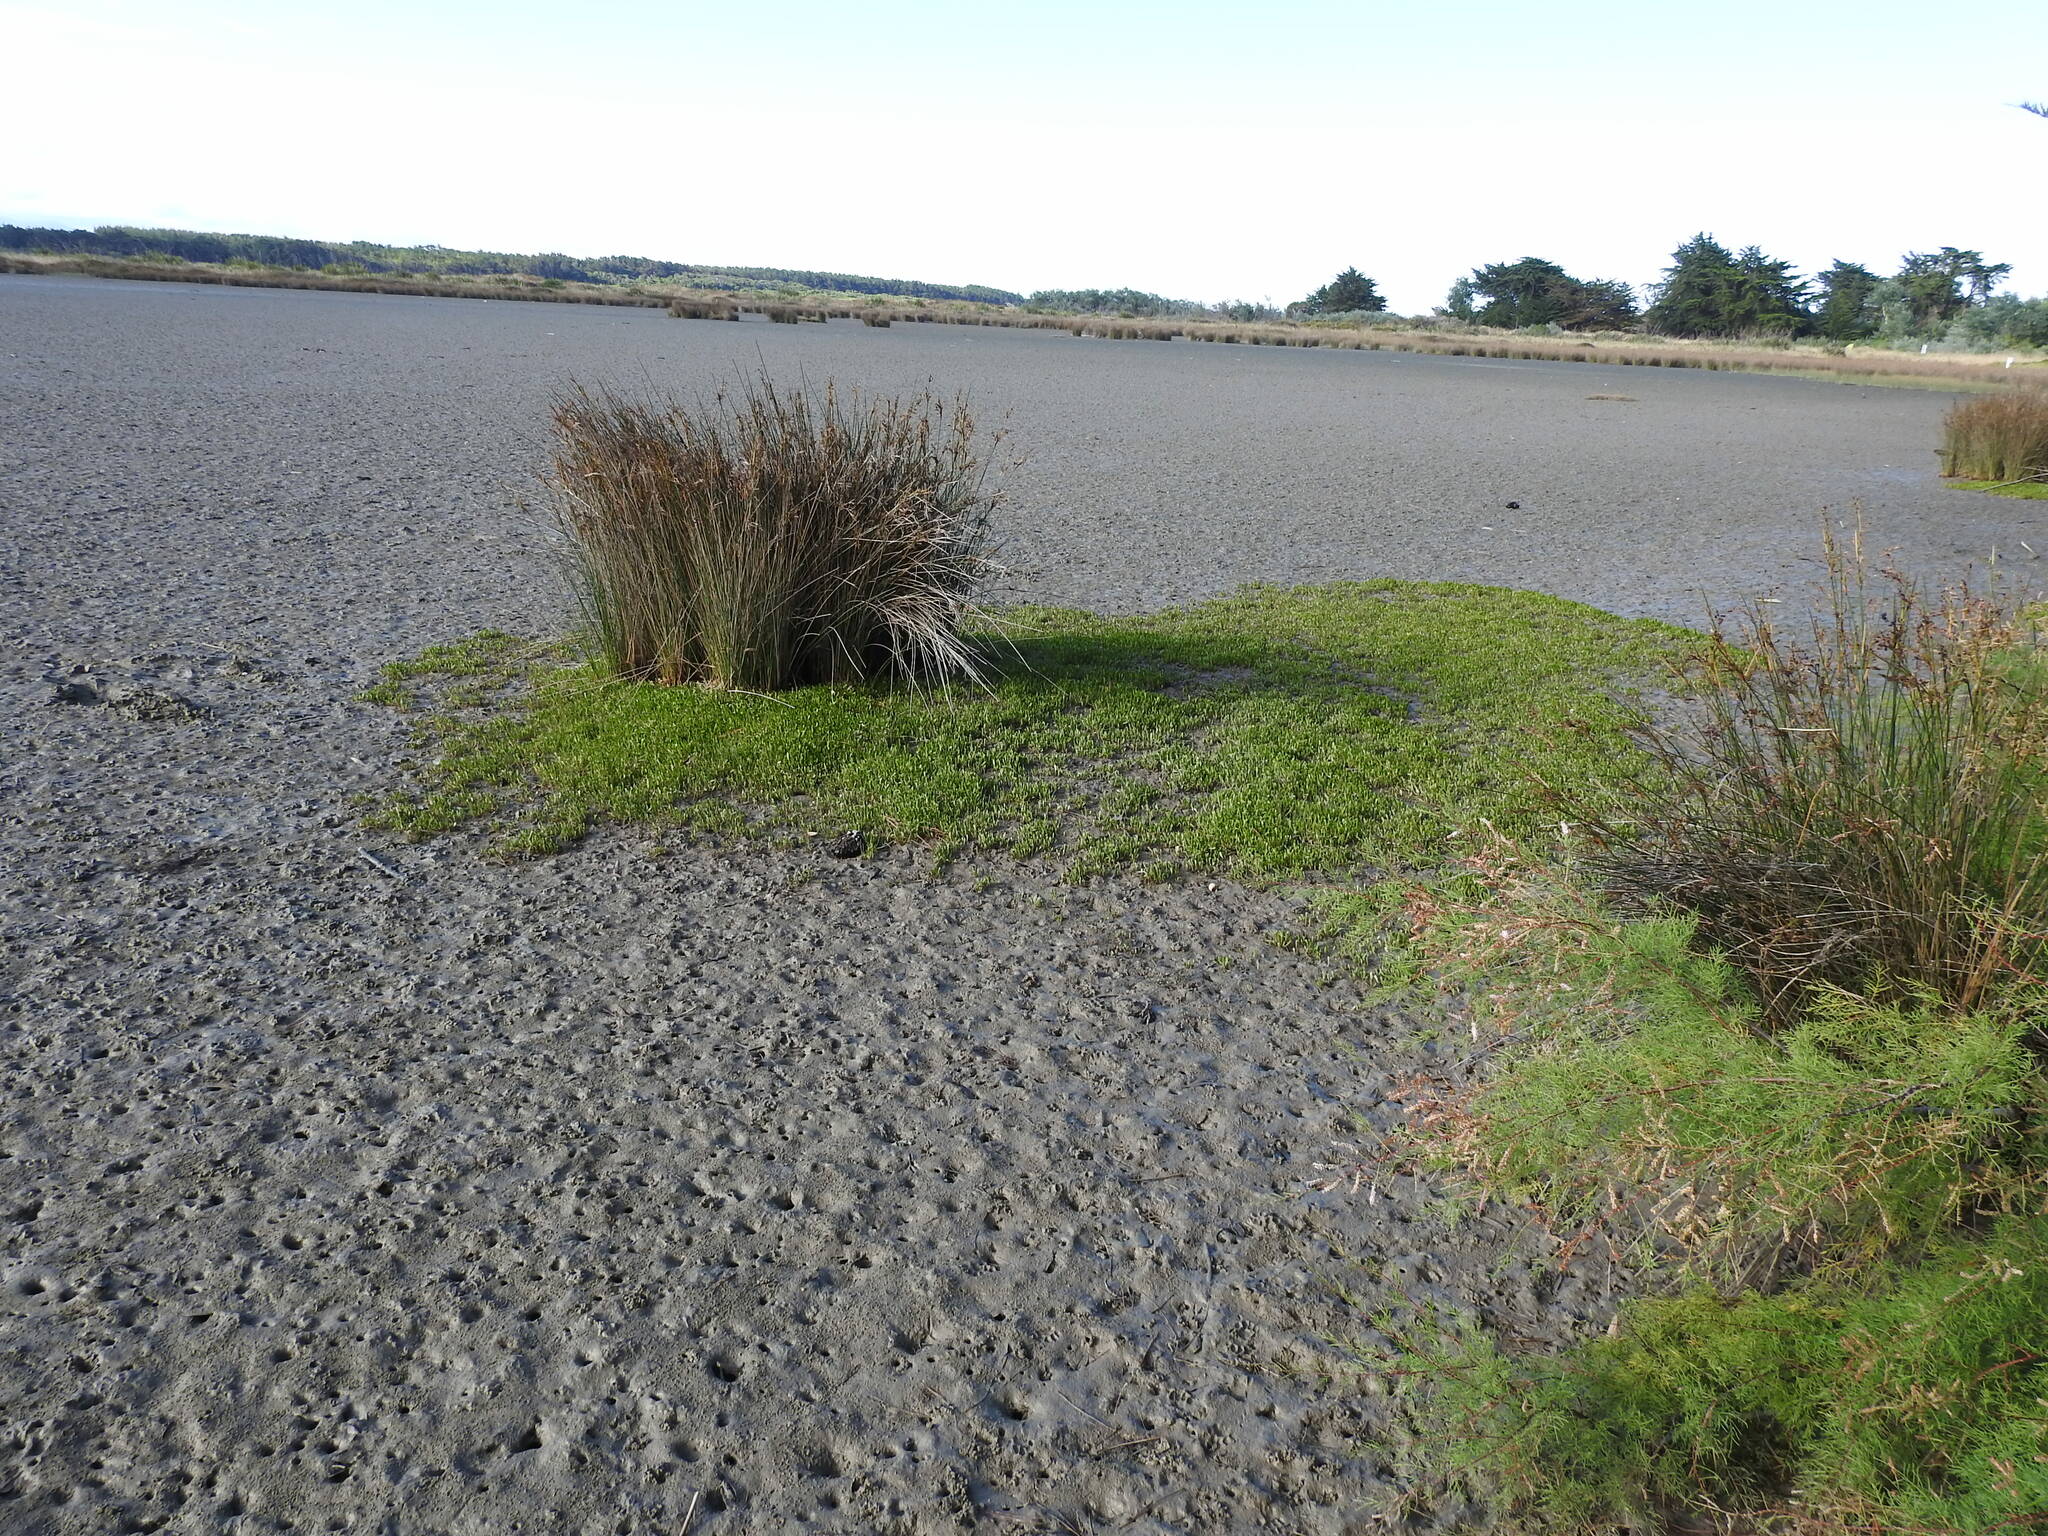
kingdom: Plantae
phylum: Tracheophyta
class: Liliopsida
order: Poales
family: Juncaceae
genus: Juncus
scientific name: Juncus kraussii
